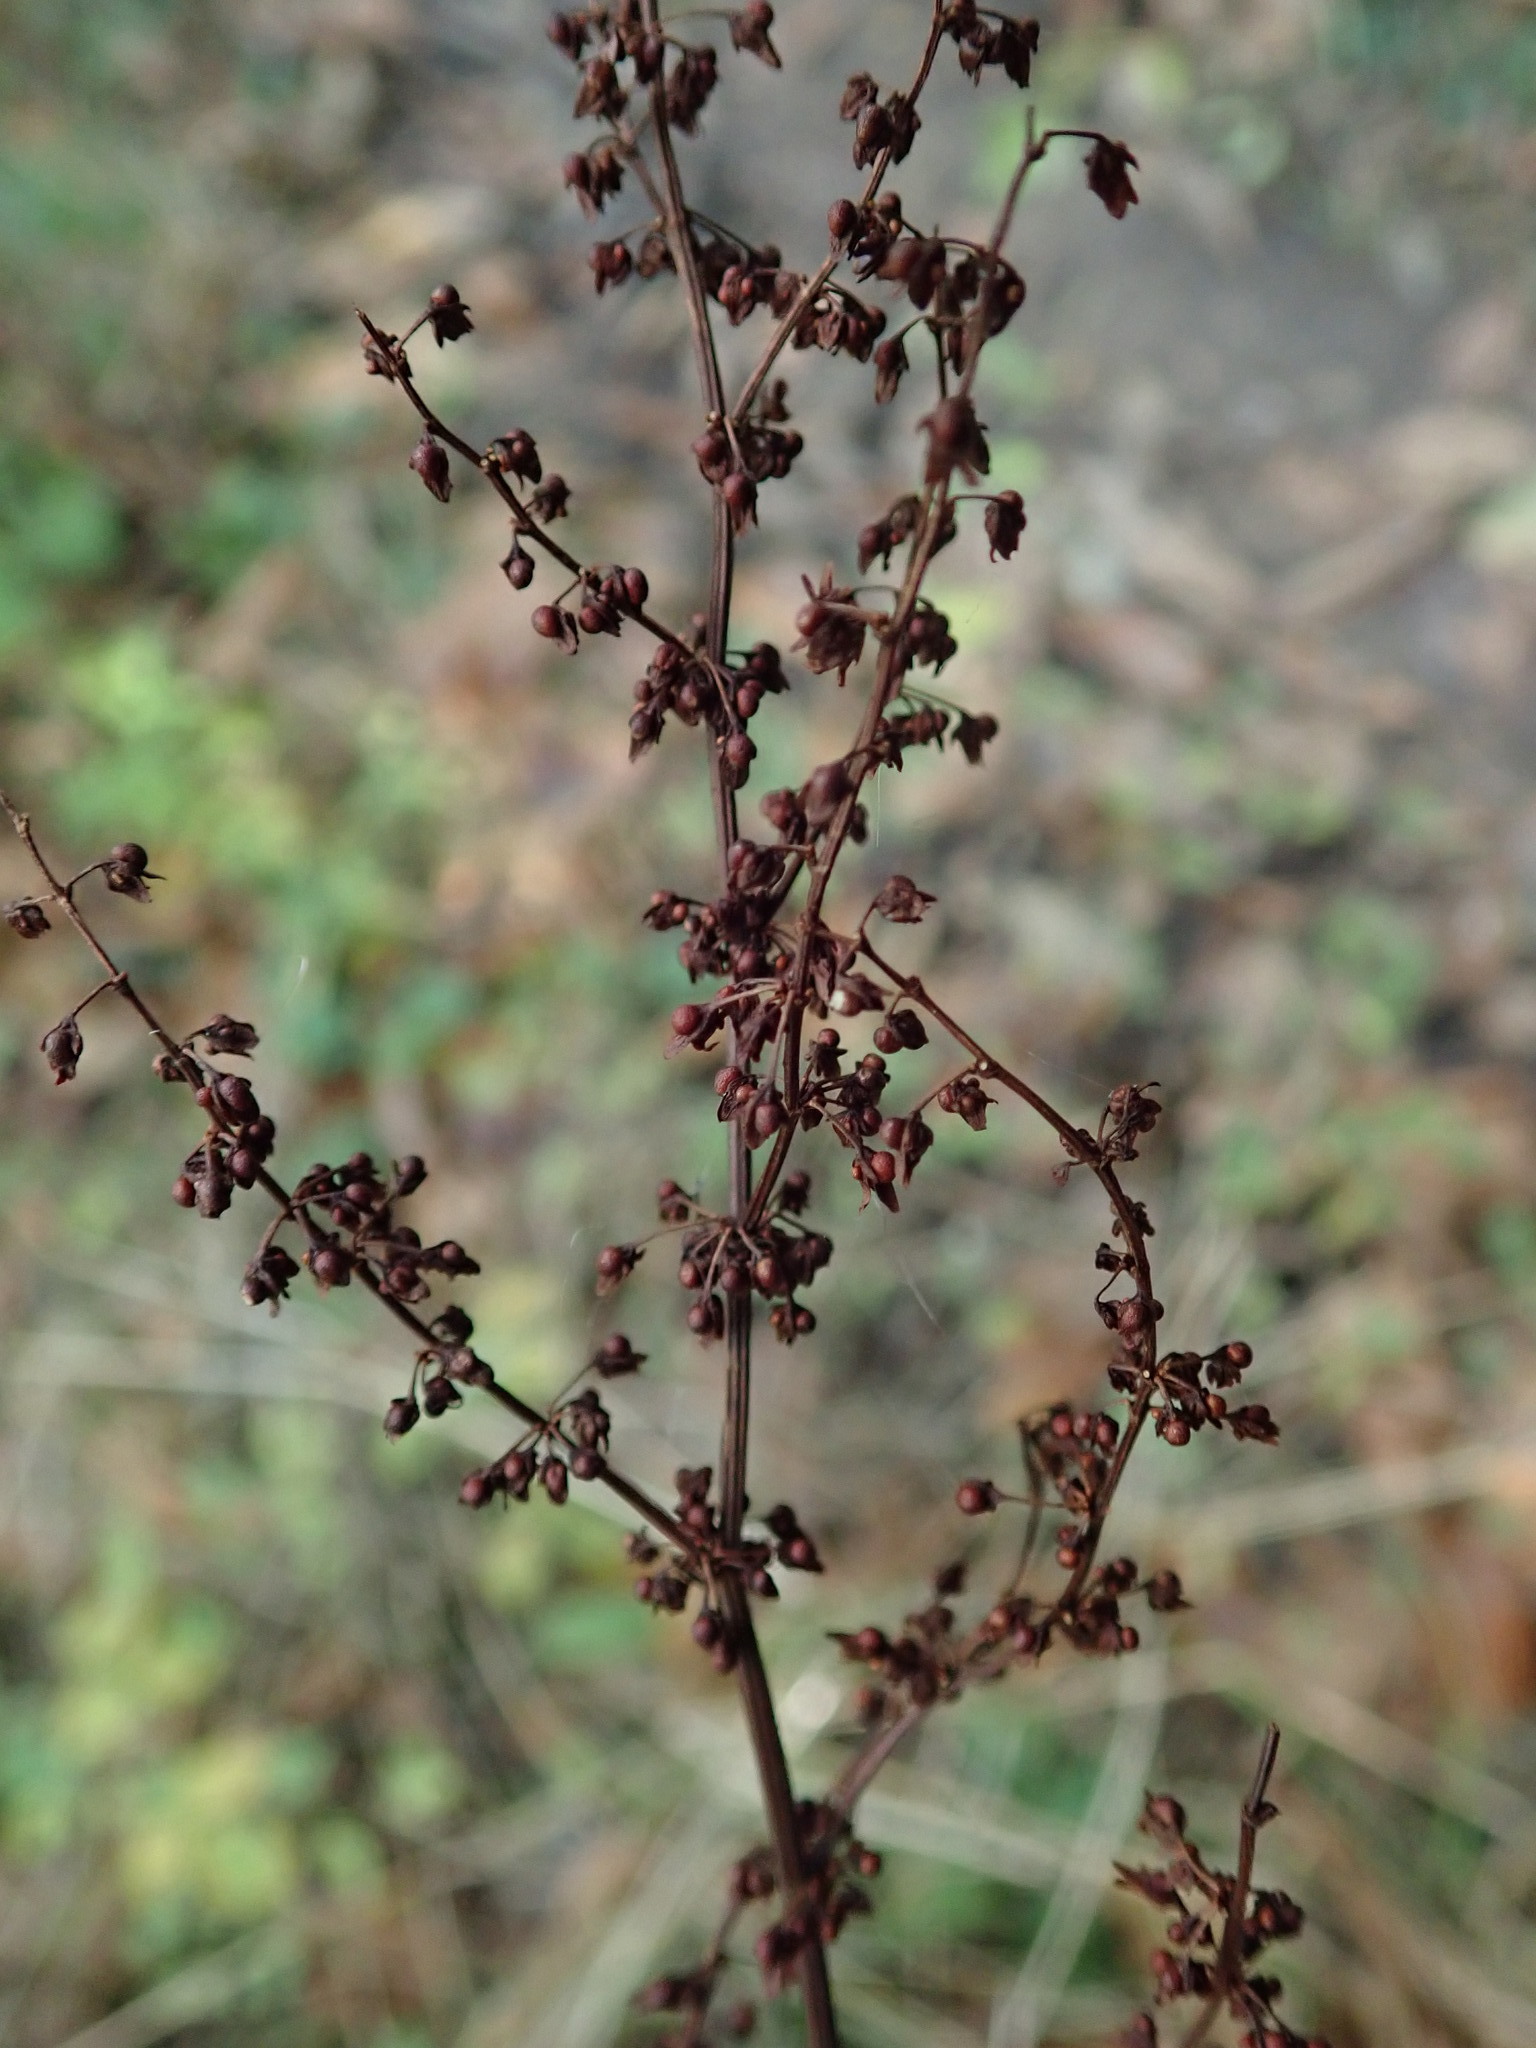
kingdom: Plantae
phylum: Tracheophyta
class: Magnoliopsida
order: Caryophyllales
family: Polygonaceae
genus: Rumex
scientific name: Rumex sanguineus
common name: Wood dock
